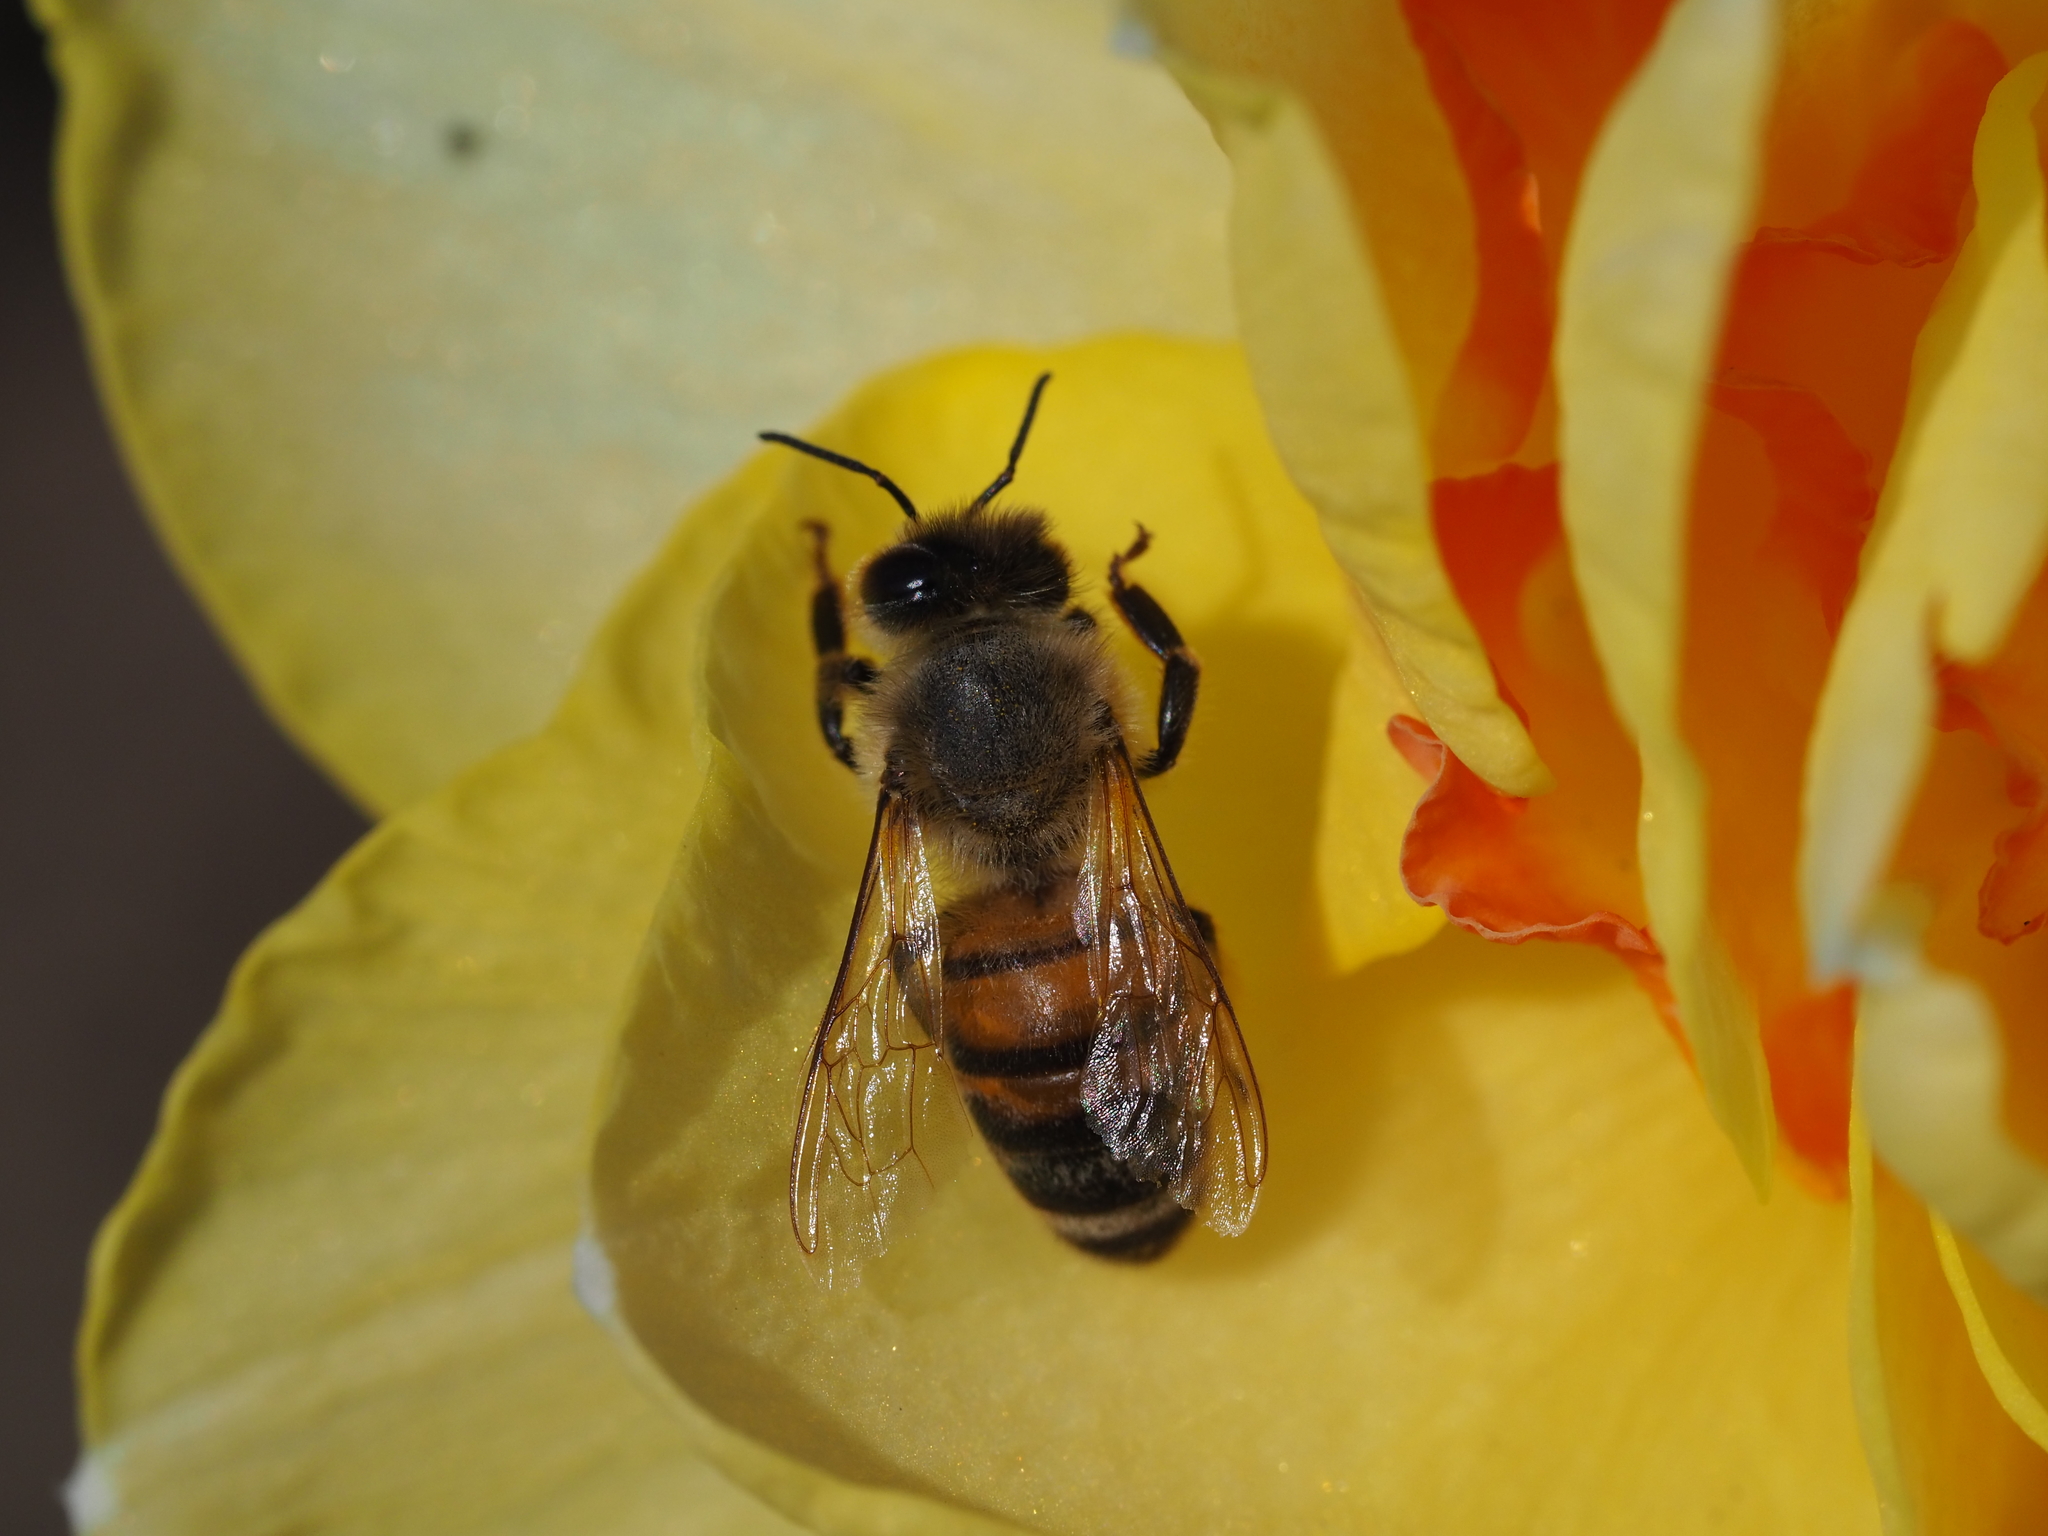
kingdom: Animalia
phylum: Arthropoda
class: Insecta
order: Hymenoptera
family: Apidae
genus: Apis
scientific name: Apis mellifera
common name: Honey bee
